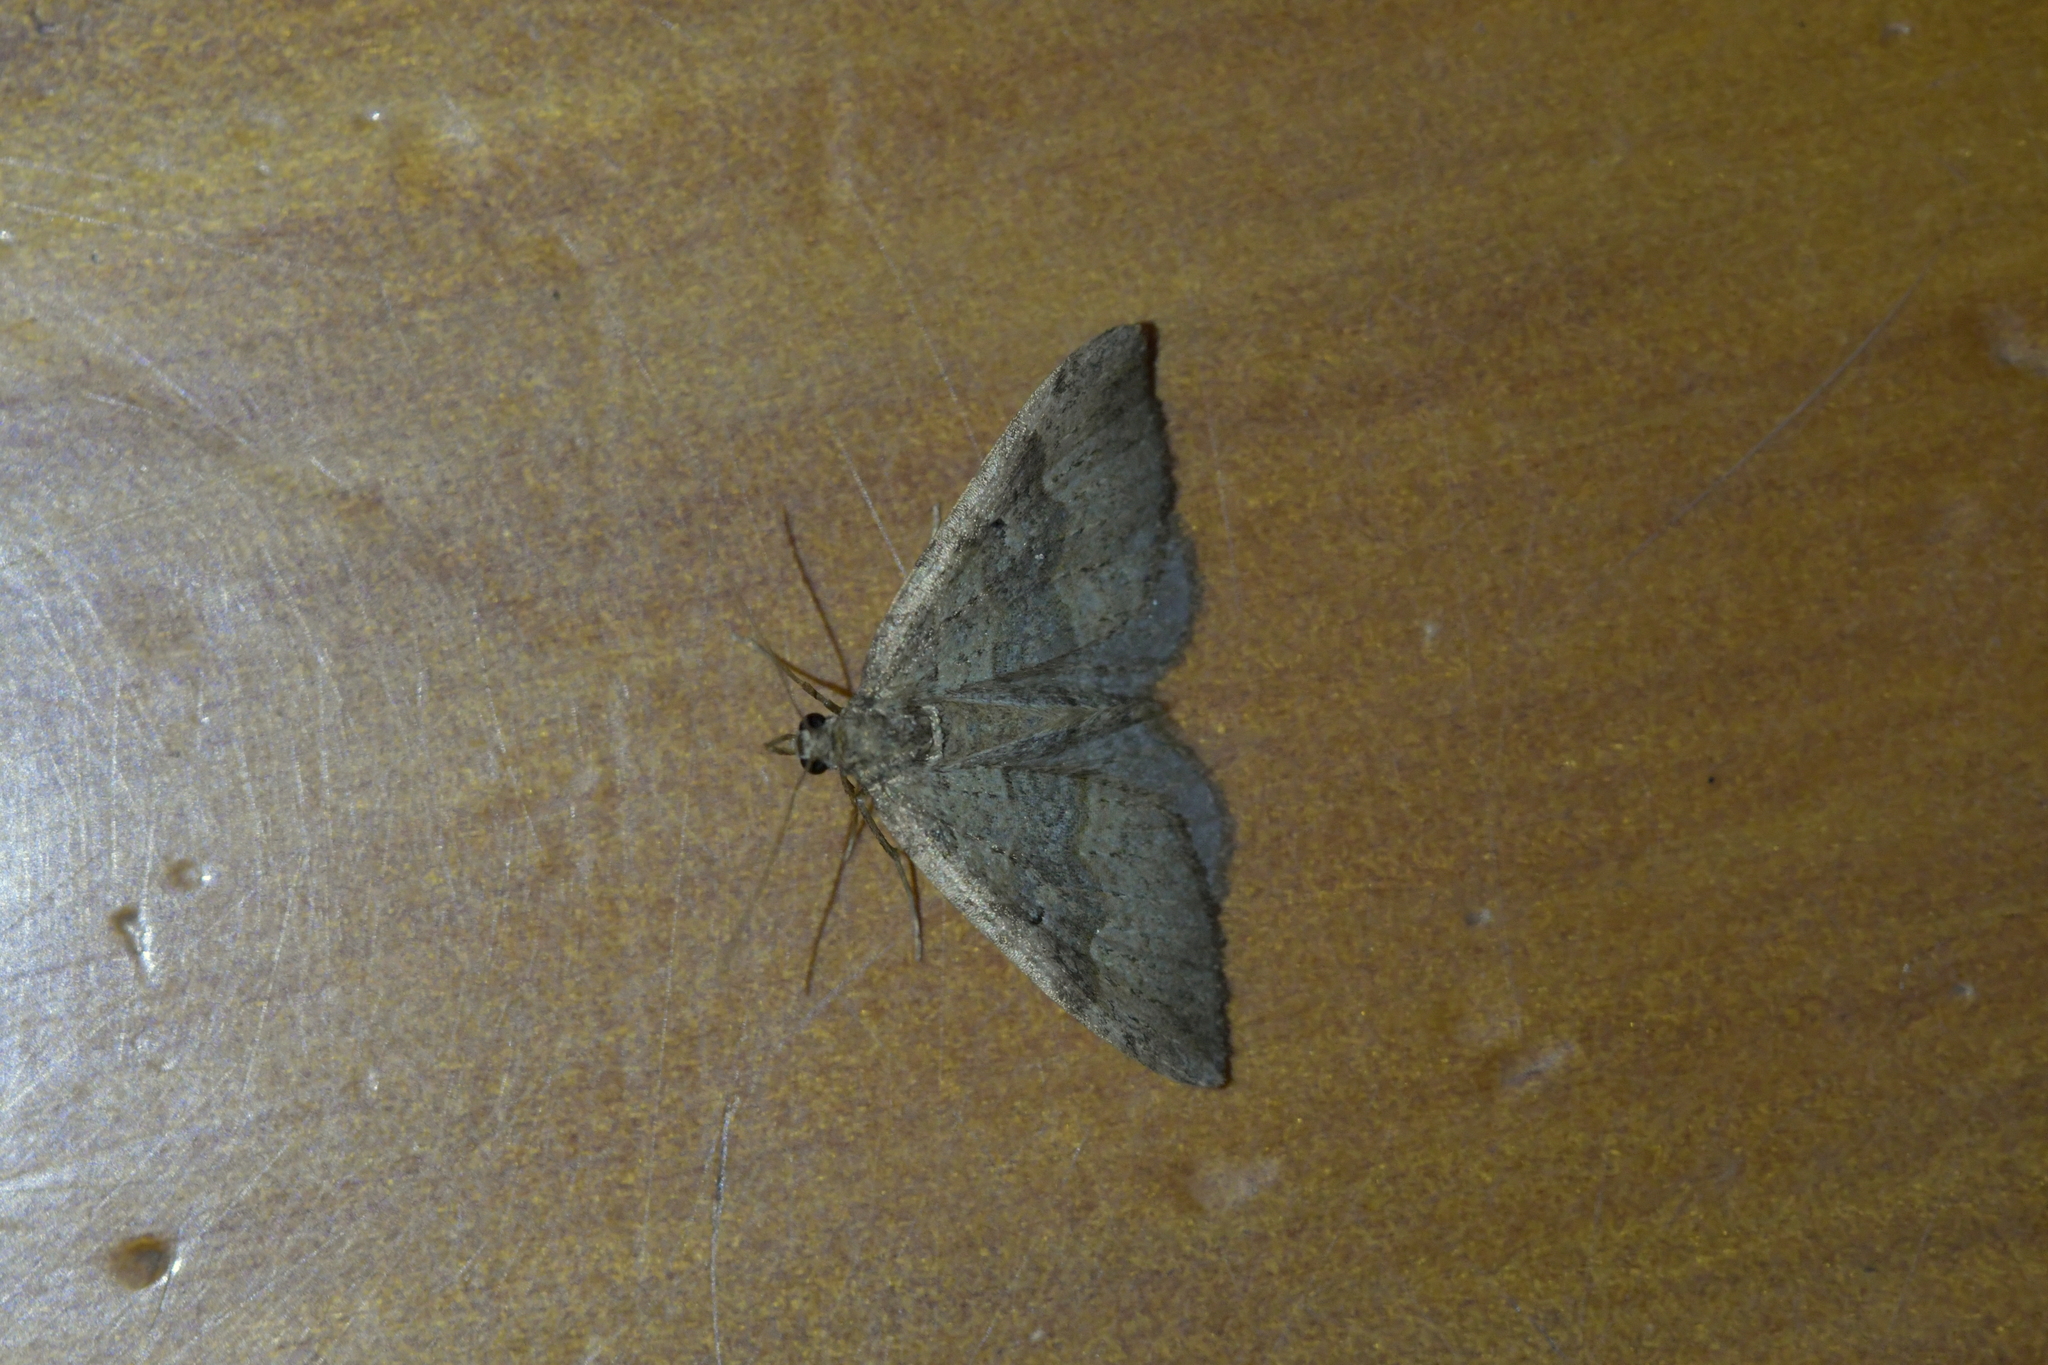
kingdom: Animalia
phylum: Arthropoda
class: Insecta
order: Lepidoptera
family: Geometridae
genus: Epyaxa
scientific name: Epyaxa rosearia
